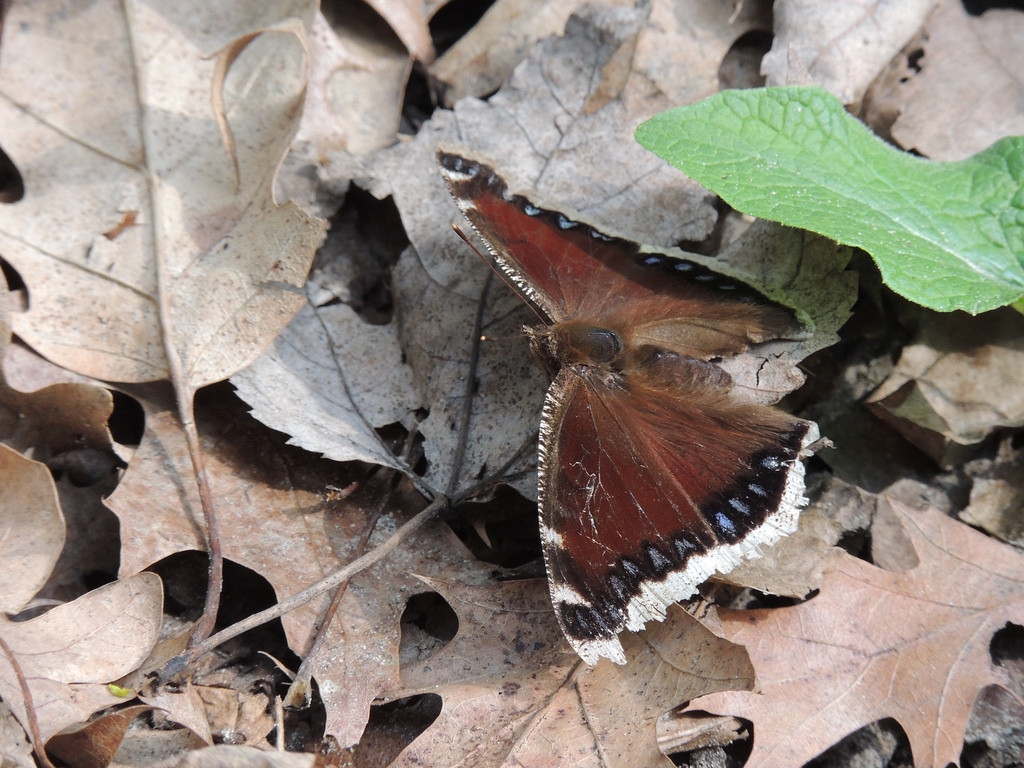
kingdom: Animalia
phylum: Arthropoda
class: Insecta
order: Lepidoptera
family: Nymphalidae
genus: Nymphalis
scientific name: Nymphalis antiopa
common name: Camberwell beauty
